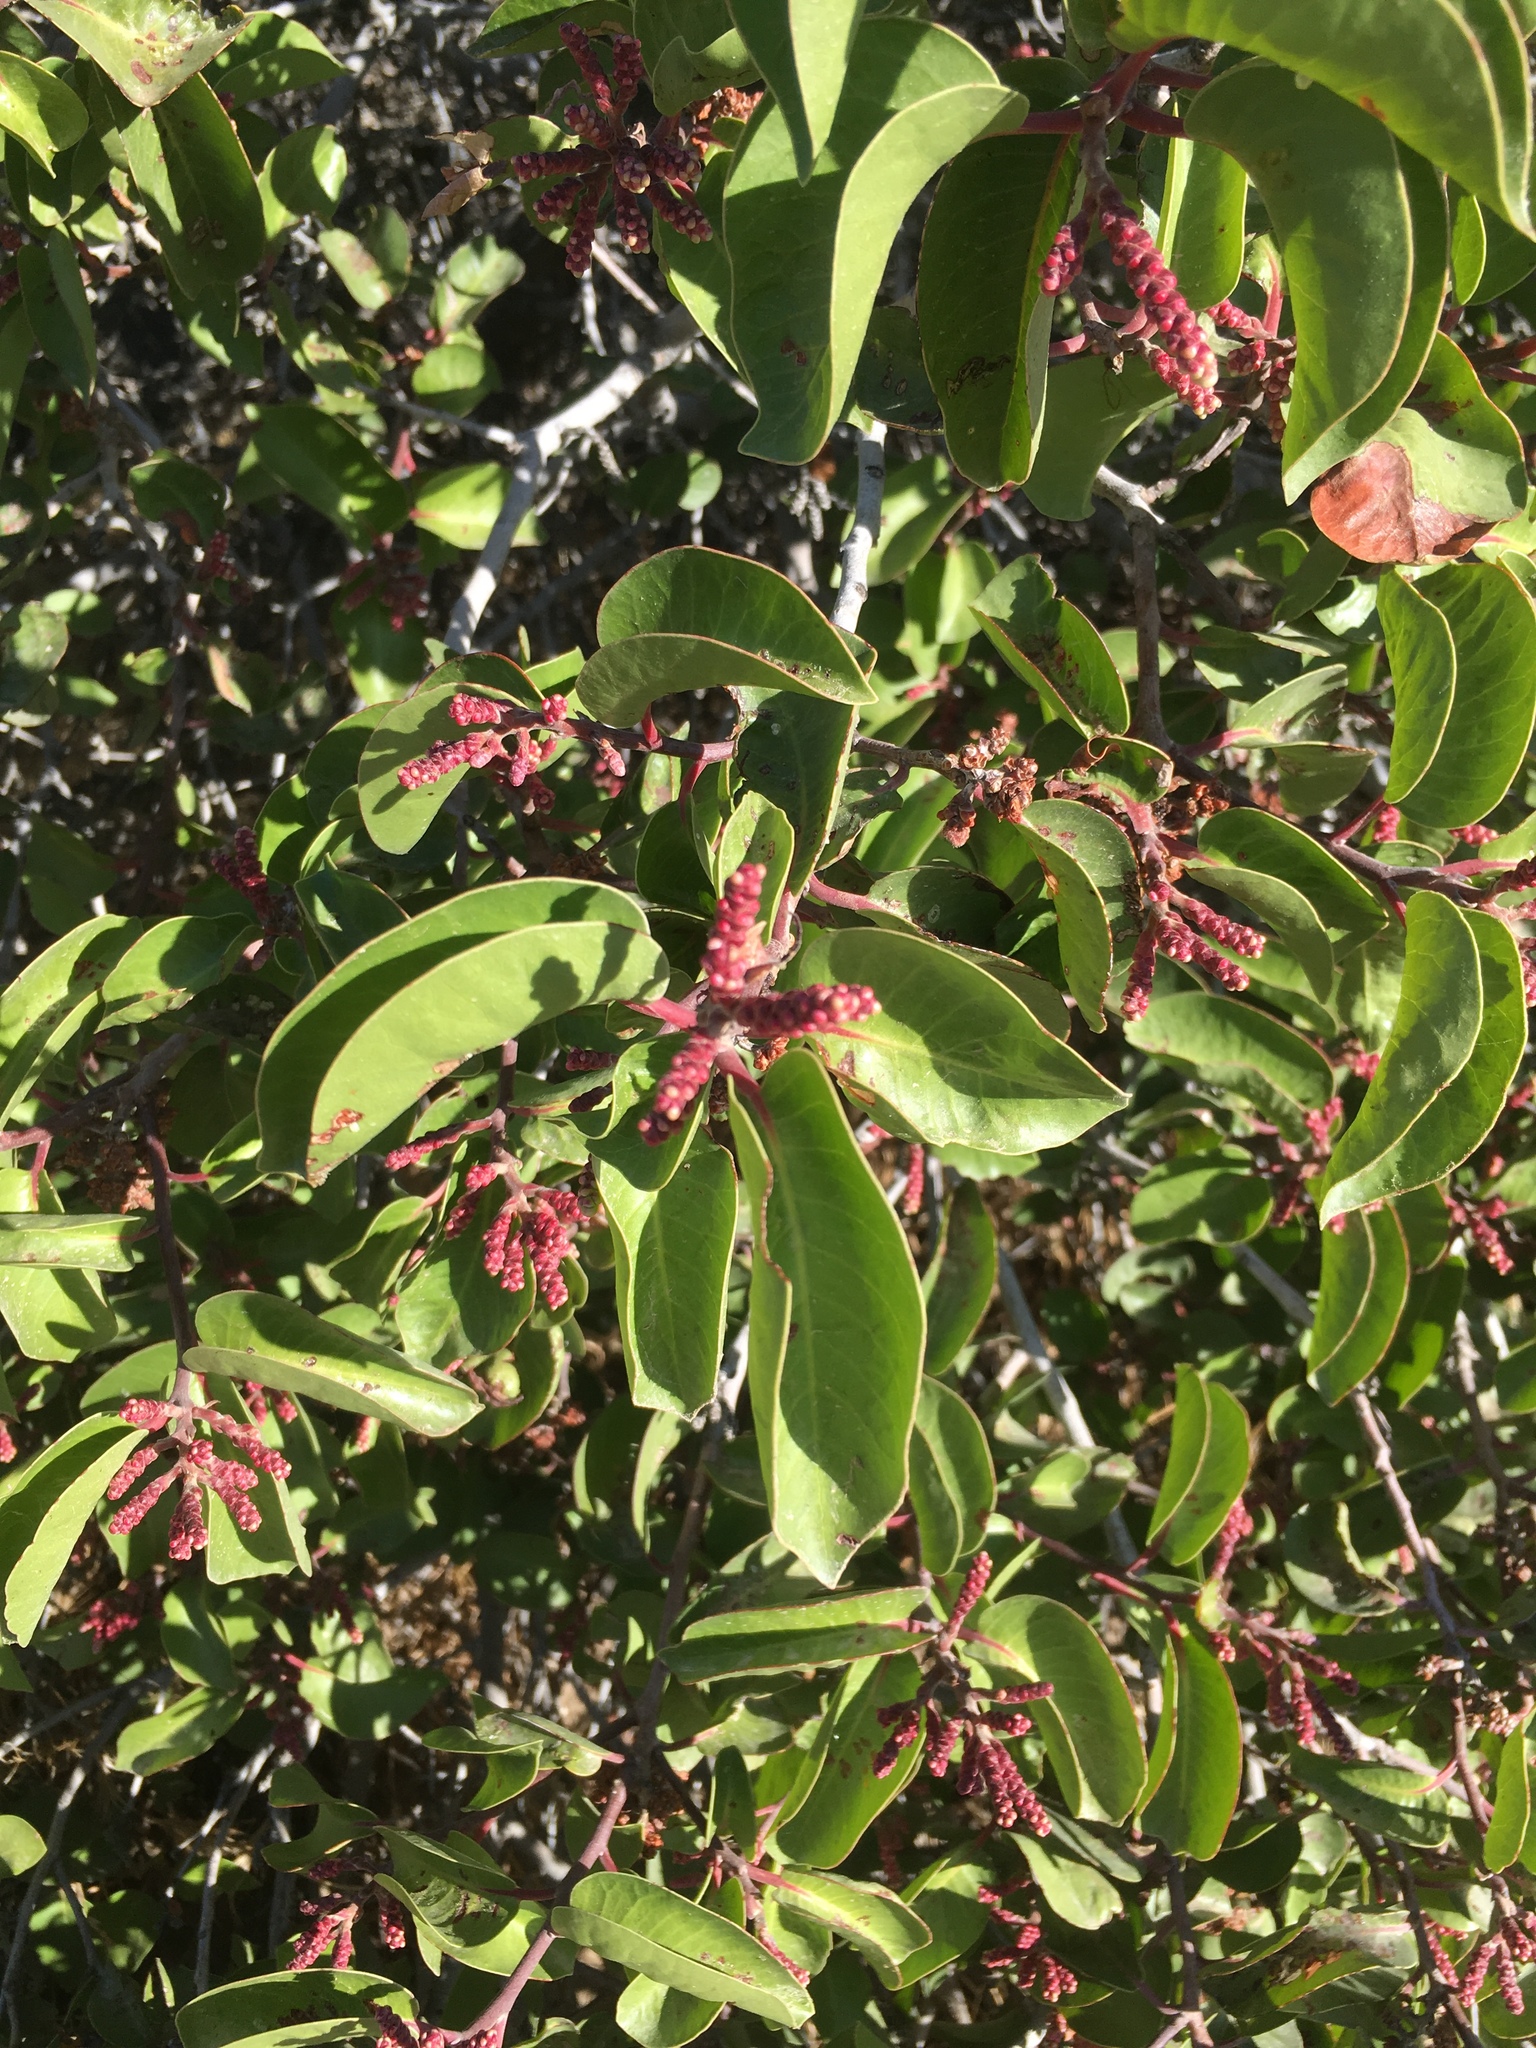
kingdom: Plantae
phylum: Tracheophyta
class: Magnoliopsida
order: Sapindales
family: Anacardiaceae
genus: Rhus
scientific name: Rhus ovata
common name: Sugar sumac
